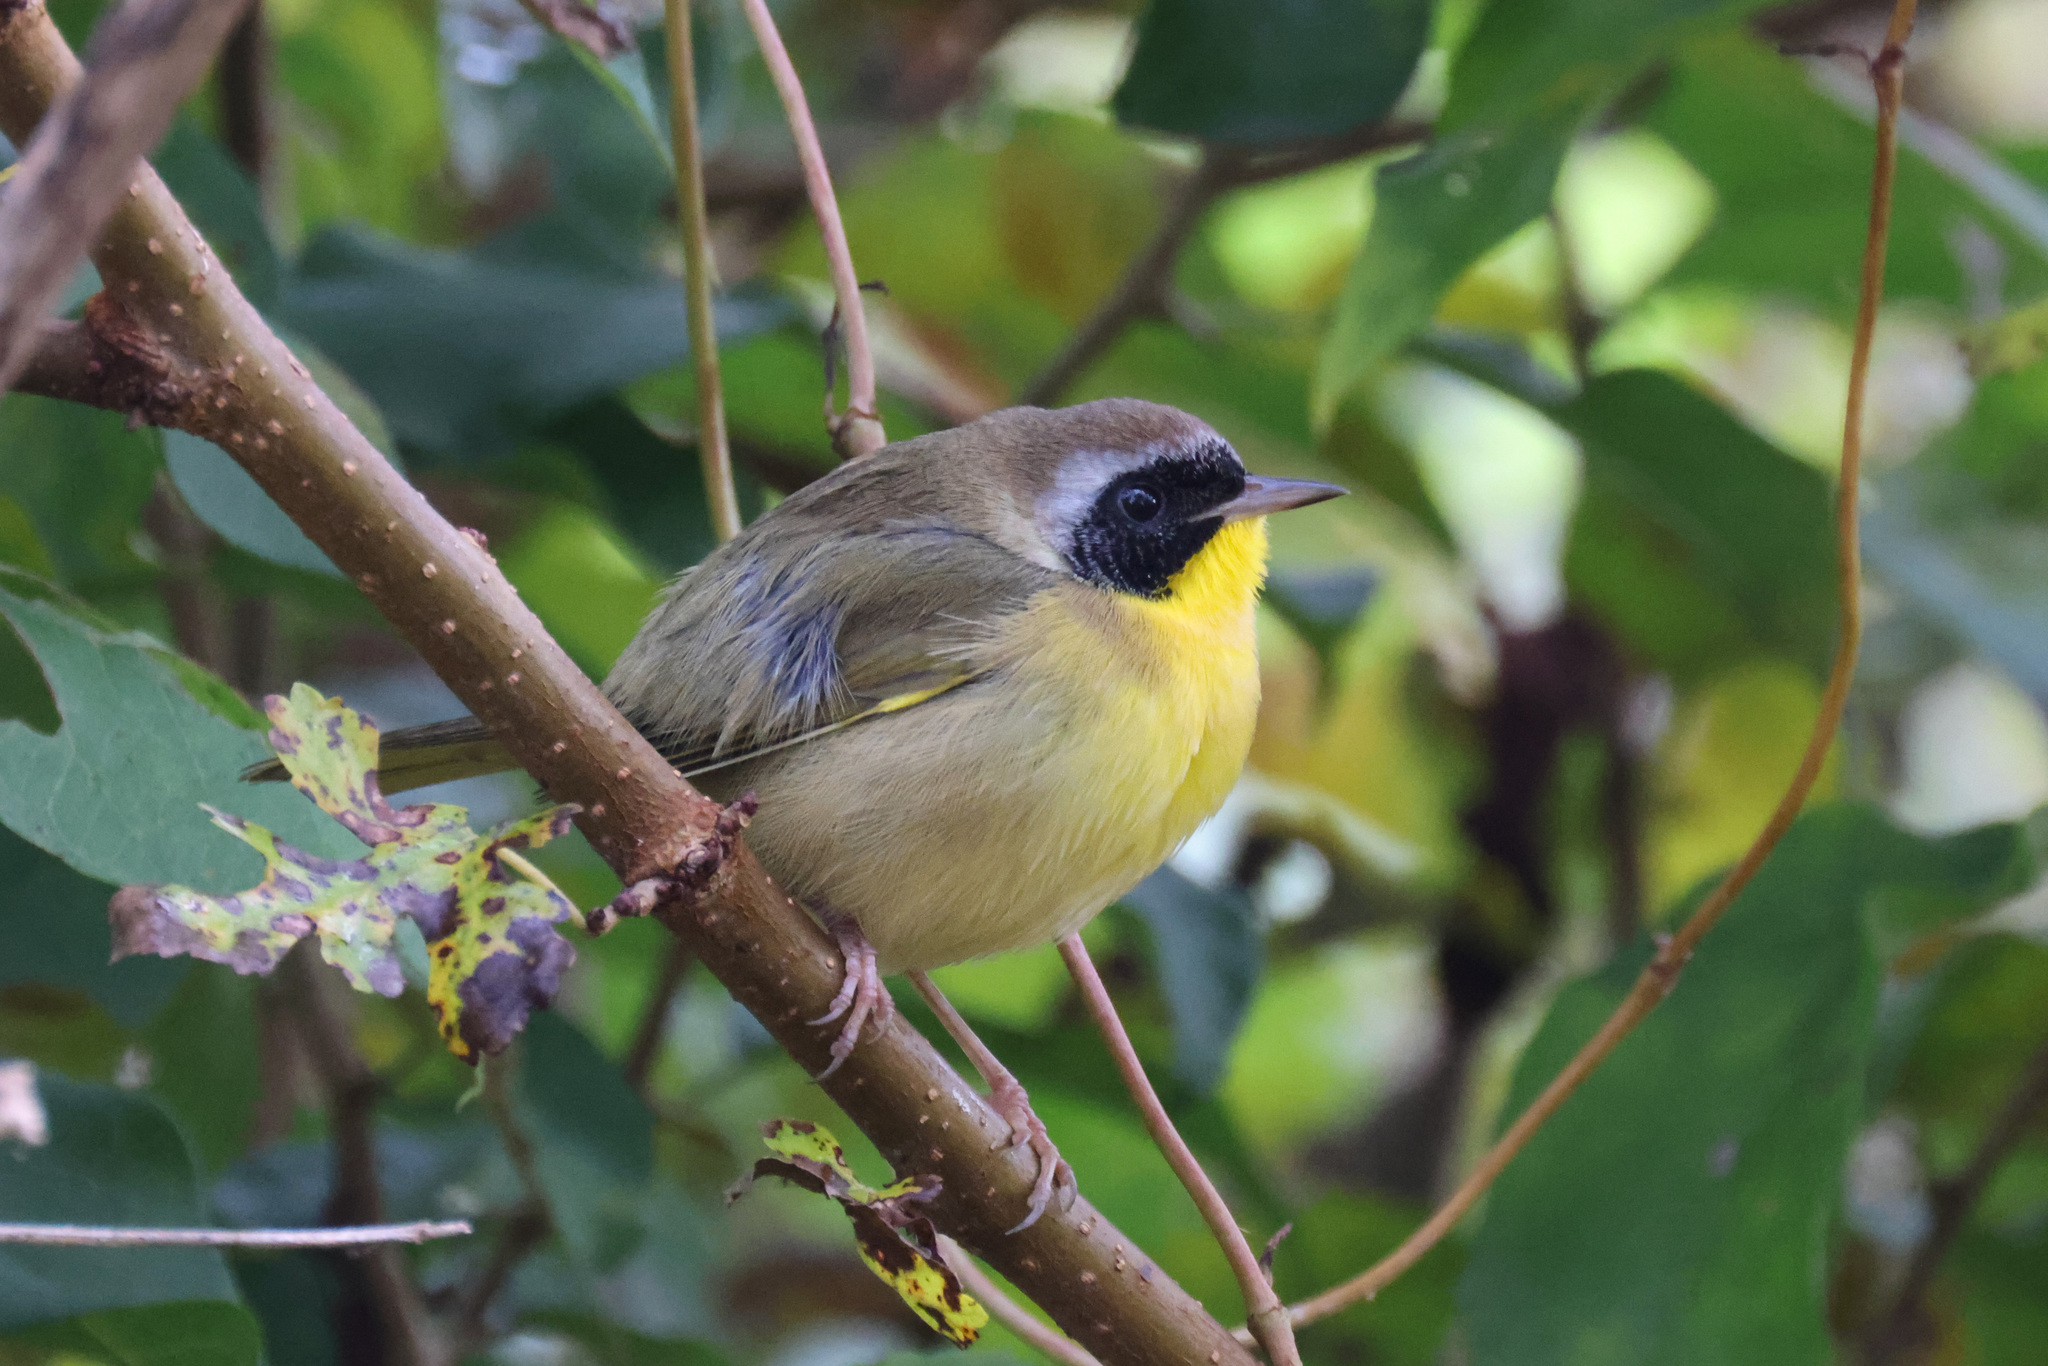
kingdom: Animalia
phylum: Chordata
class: Aves
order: Passeriformes
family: Parulidae
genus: Geothlypis
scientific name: Geothlypis trichas
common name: Common yellowthroat
